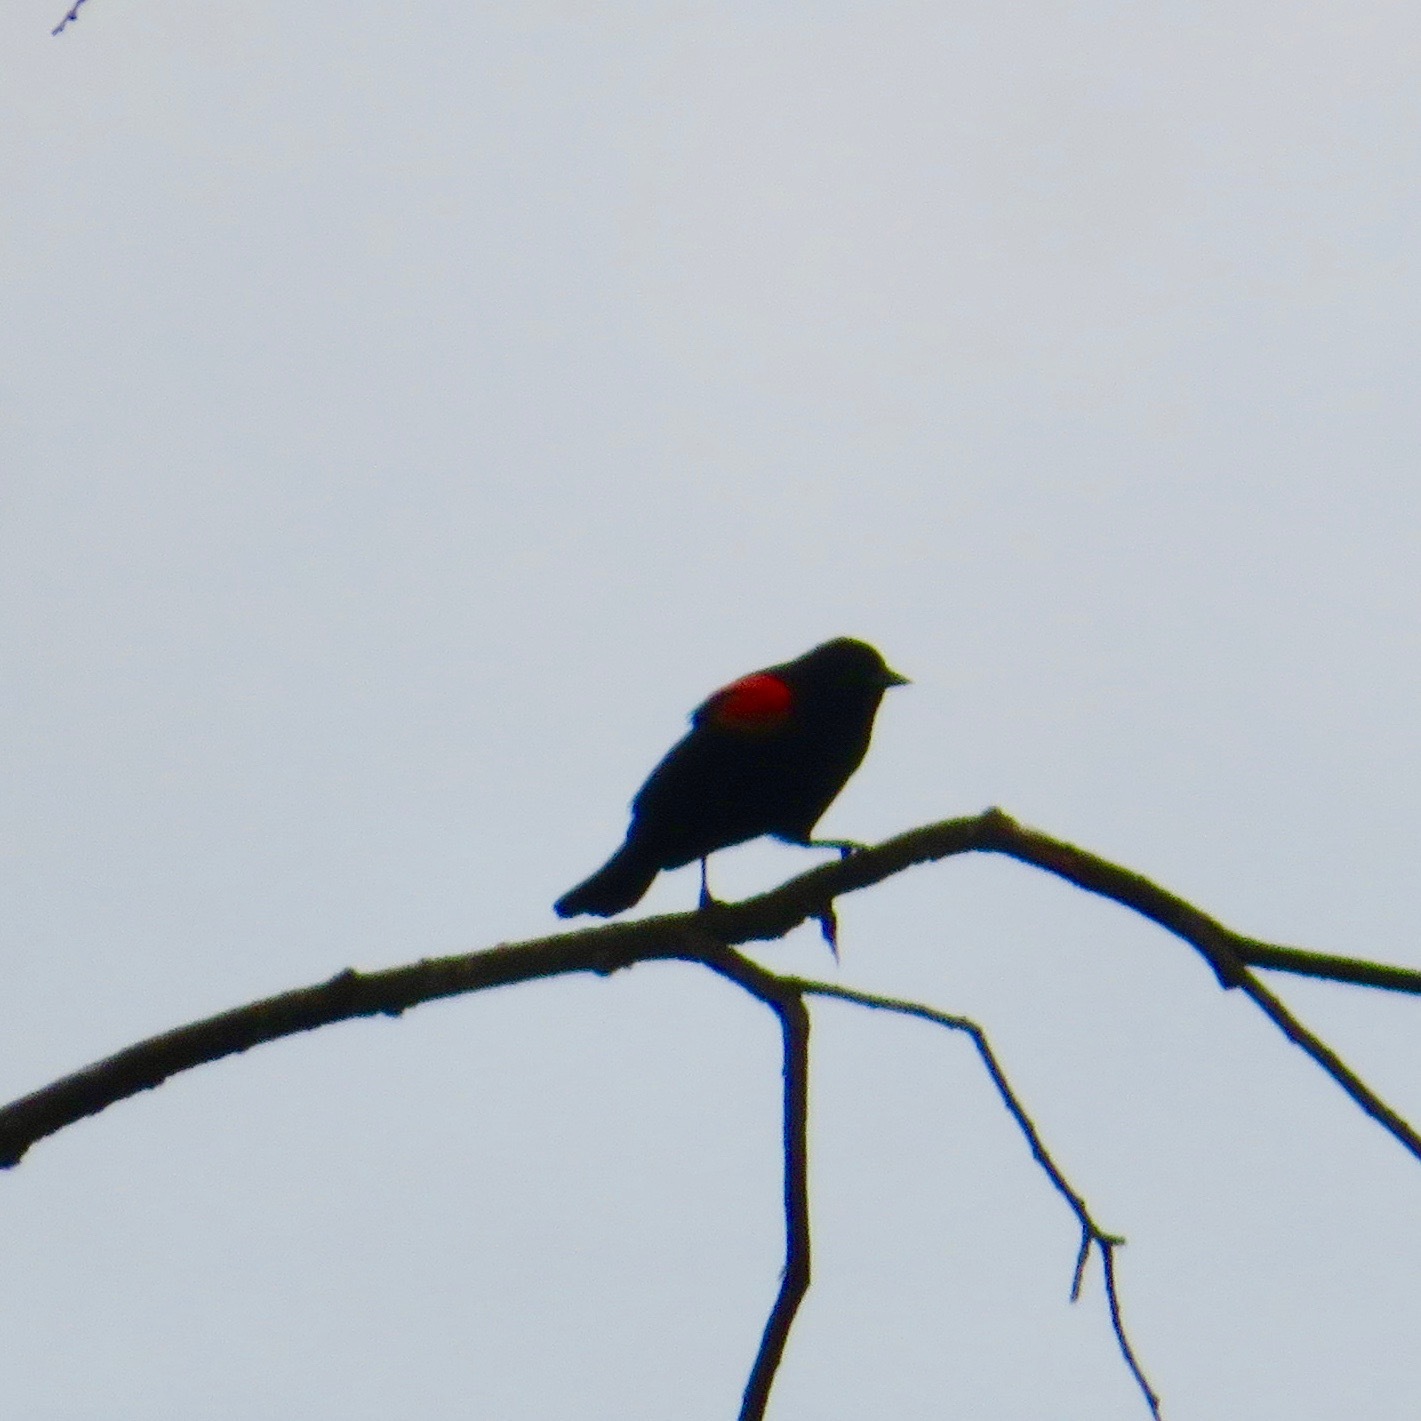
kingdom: Animalia
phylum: Chordata
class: Aves
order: Passeriformes
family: Icteridae
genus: Agelaius
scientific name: Agelaius phoeniceus
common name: Red-winged blackbird
